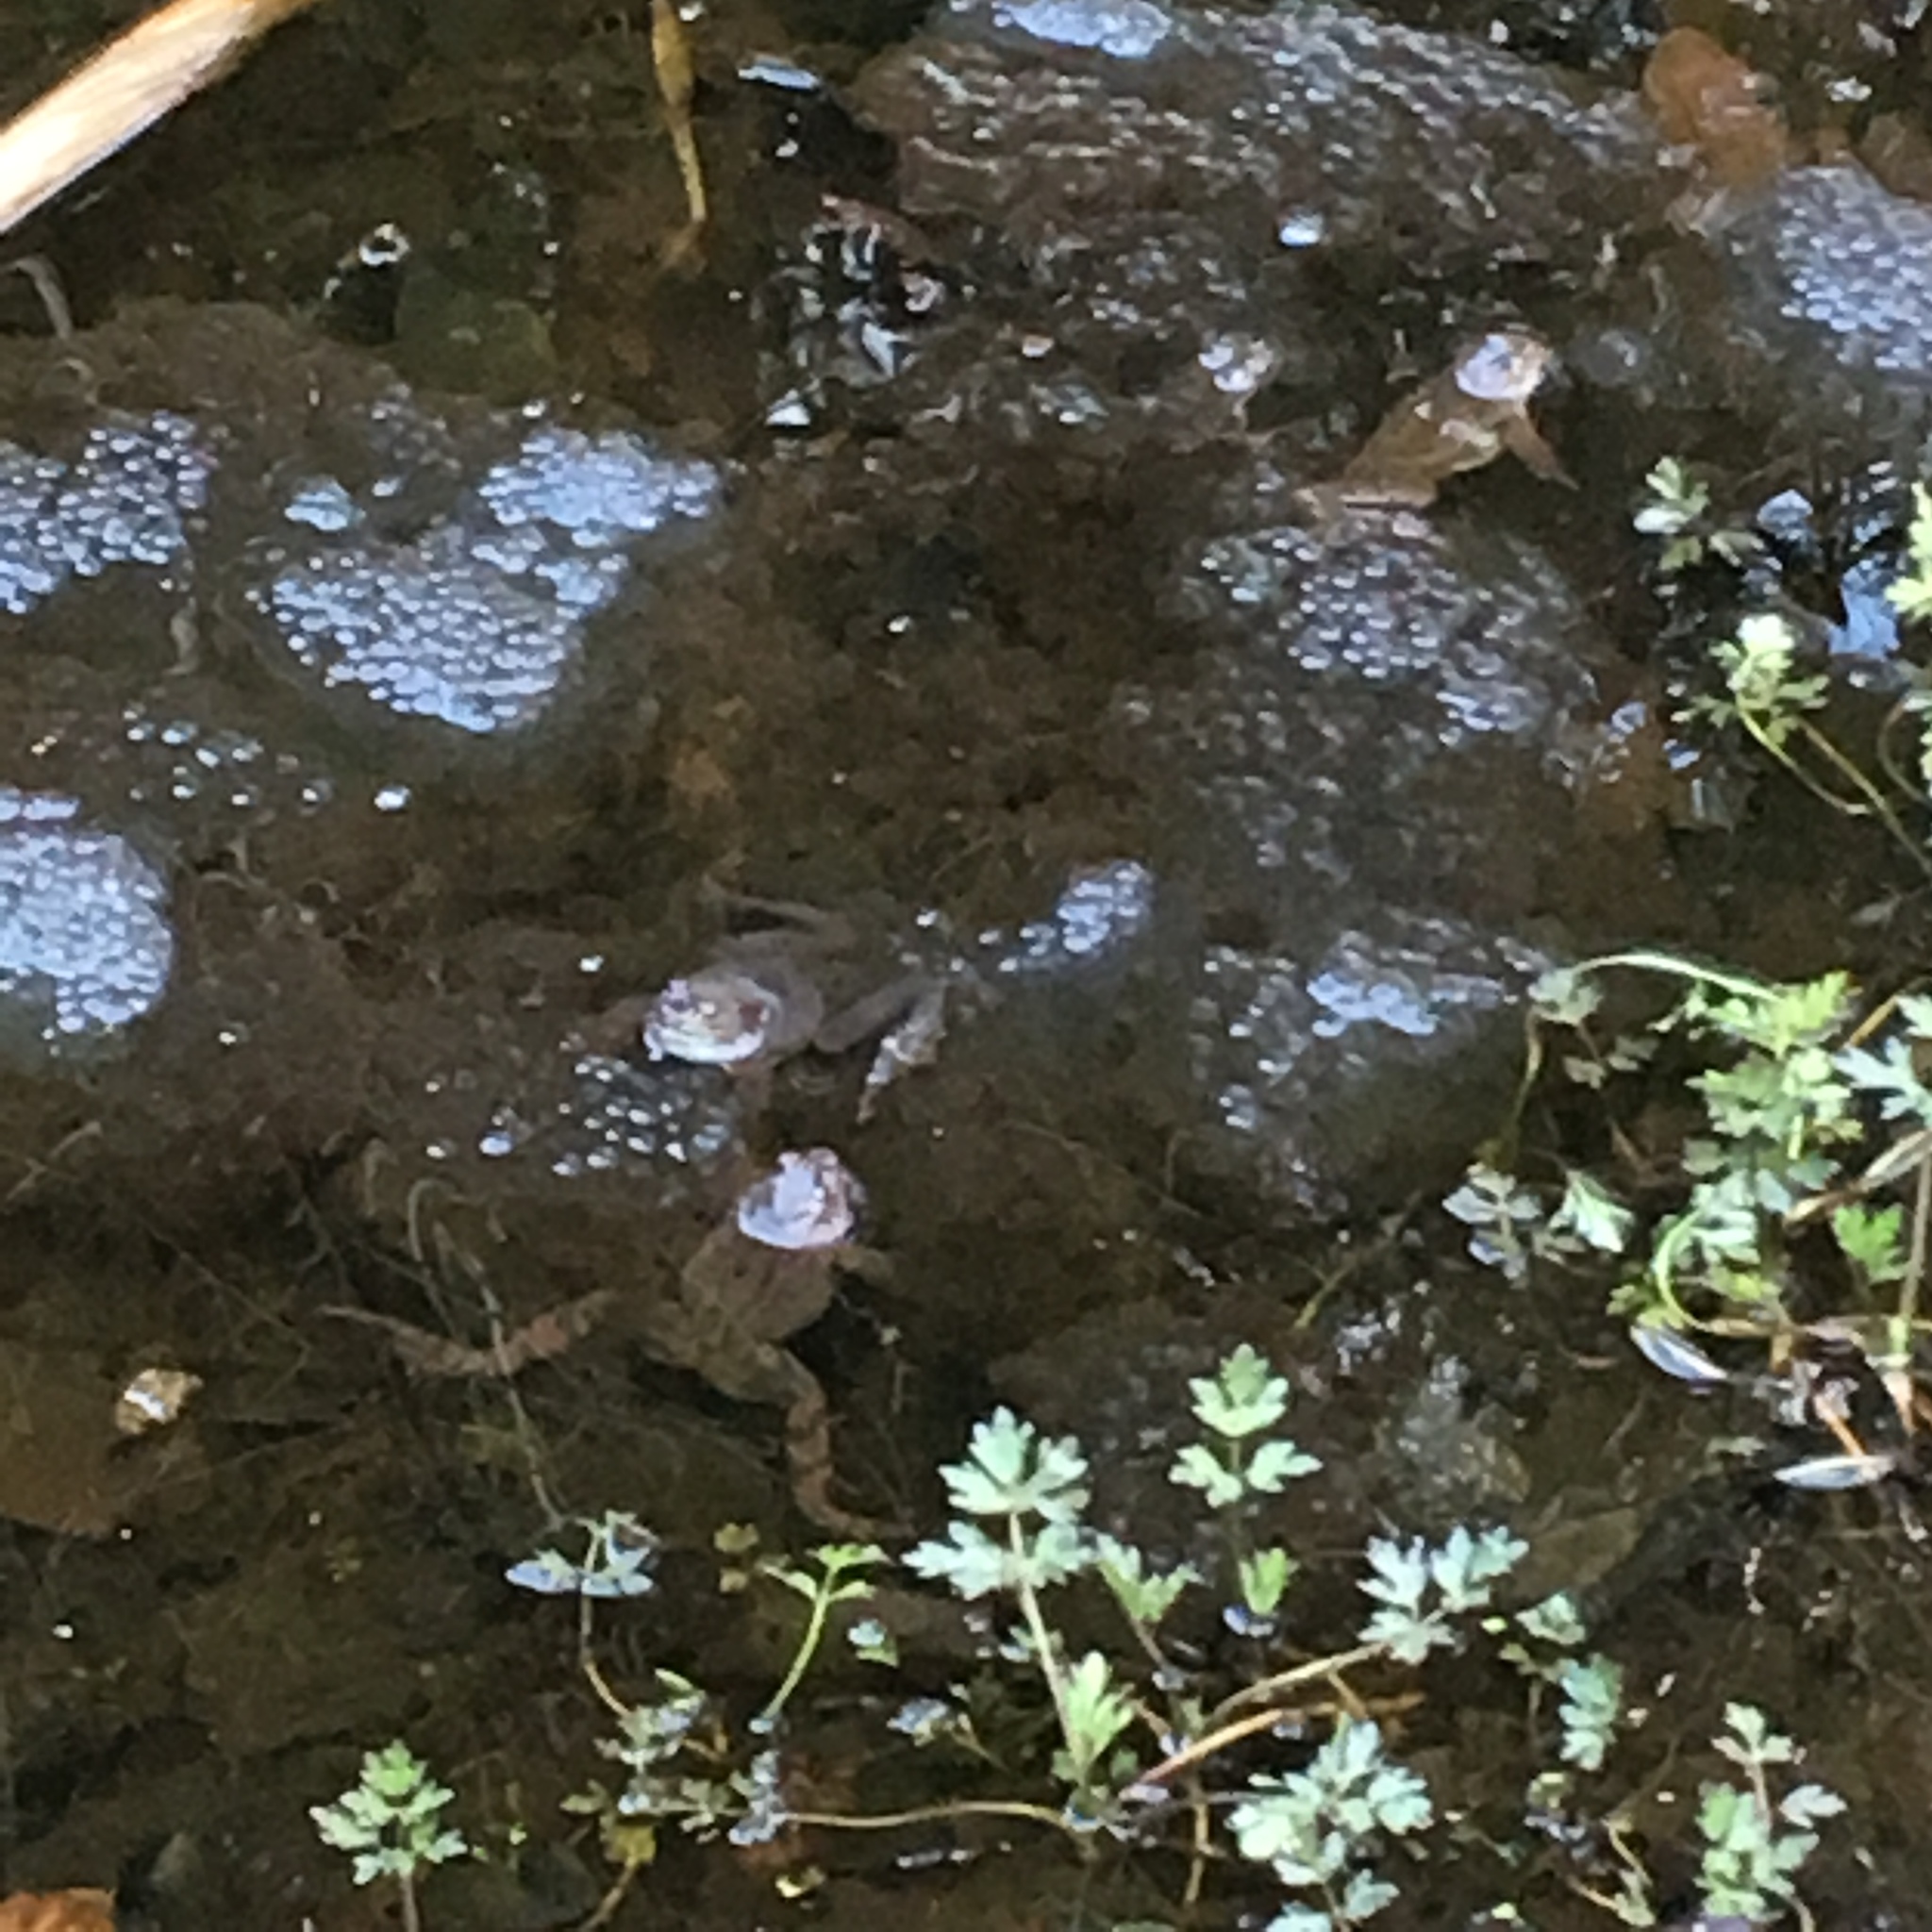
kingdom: Animalia
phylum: Chordata
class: Amphibia
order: Anura
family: Ranidae
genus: Rana
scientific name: Rana temporaria
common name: Common frog
